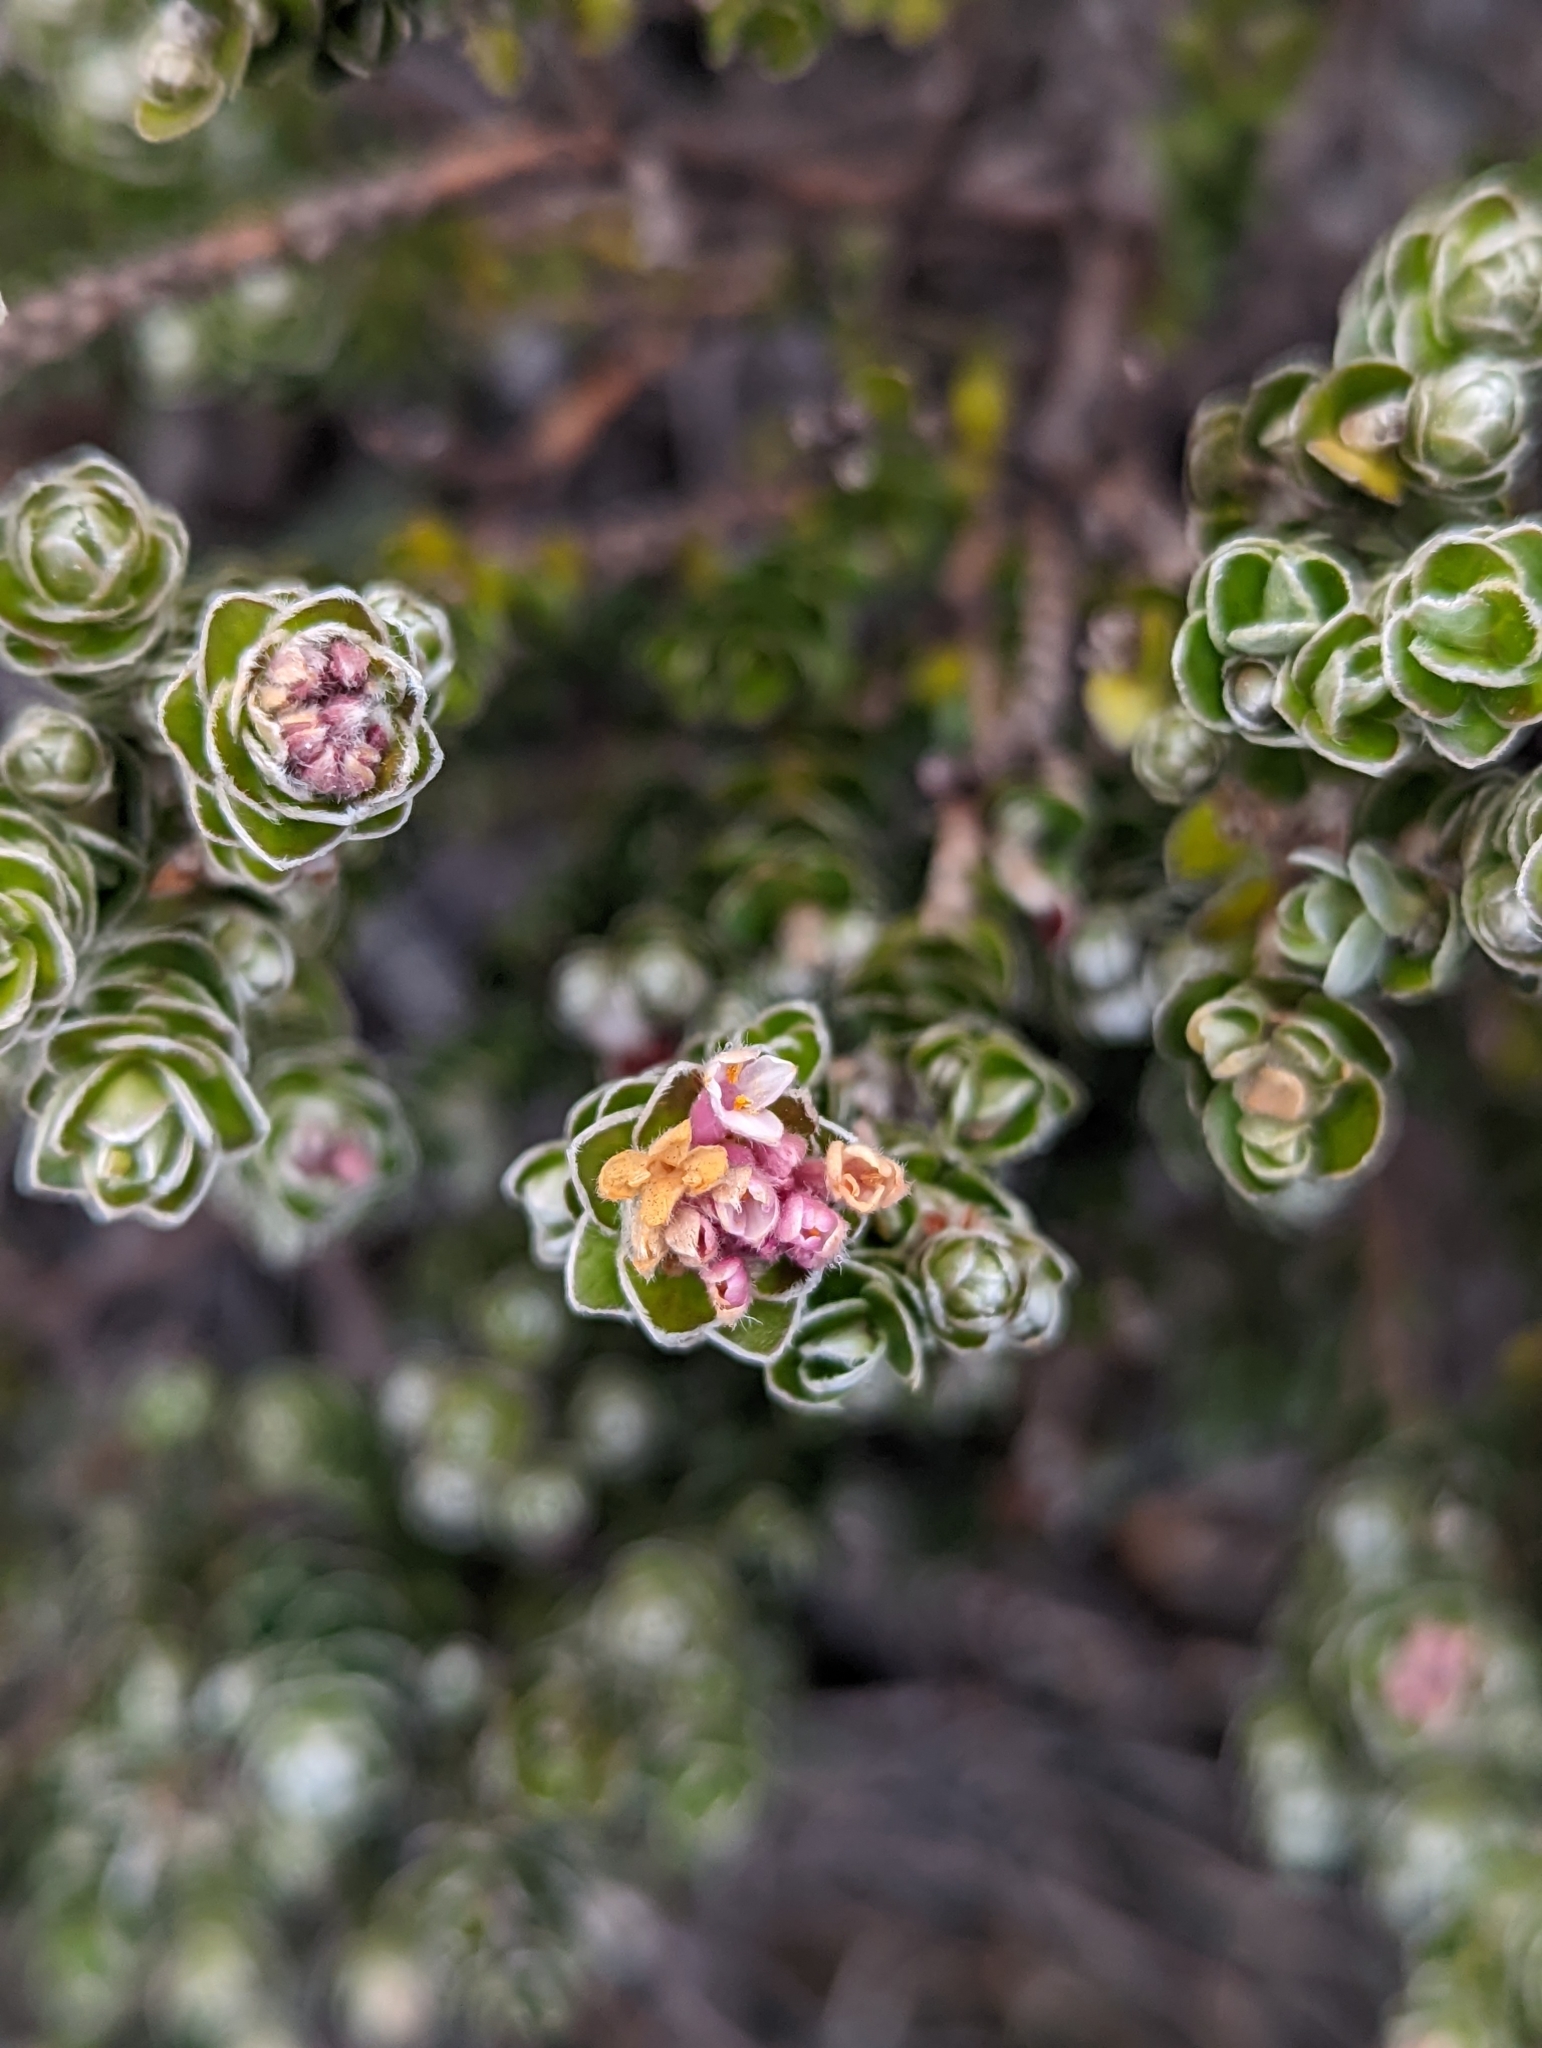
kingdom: Plantae
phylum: Tracheophyta
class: Magnoliopsida
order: Malvales
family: Thymelaeaceae
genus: Pimelea
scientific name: Pimelea sericea
